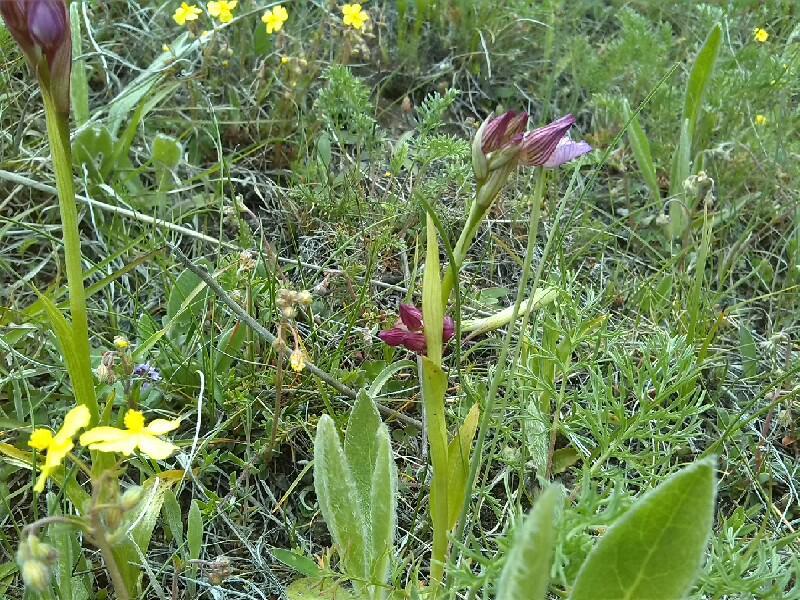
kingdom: Plantae
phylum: Tracheophyta
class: Liliopsida
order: Asparagales
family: Orchidaceae
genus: Anacamptis
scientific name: Anacamptis papilionacea
